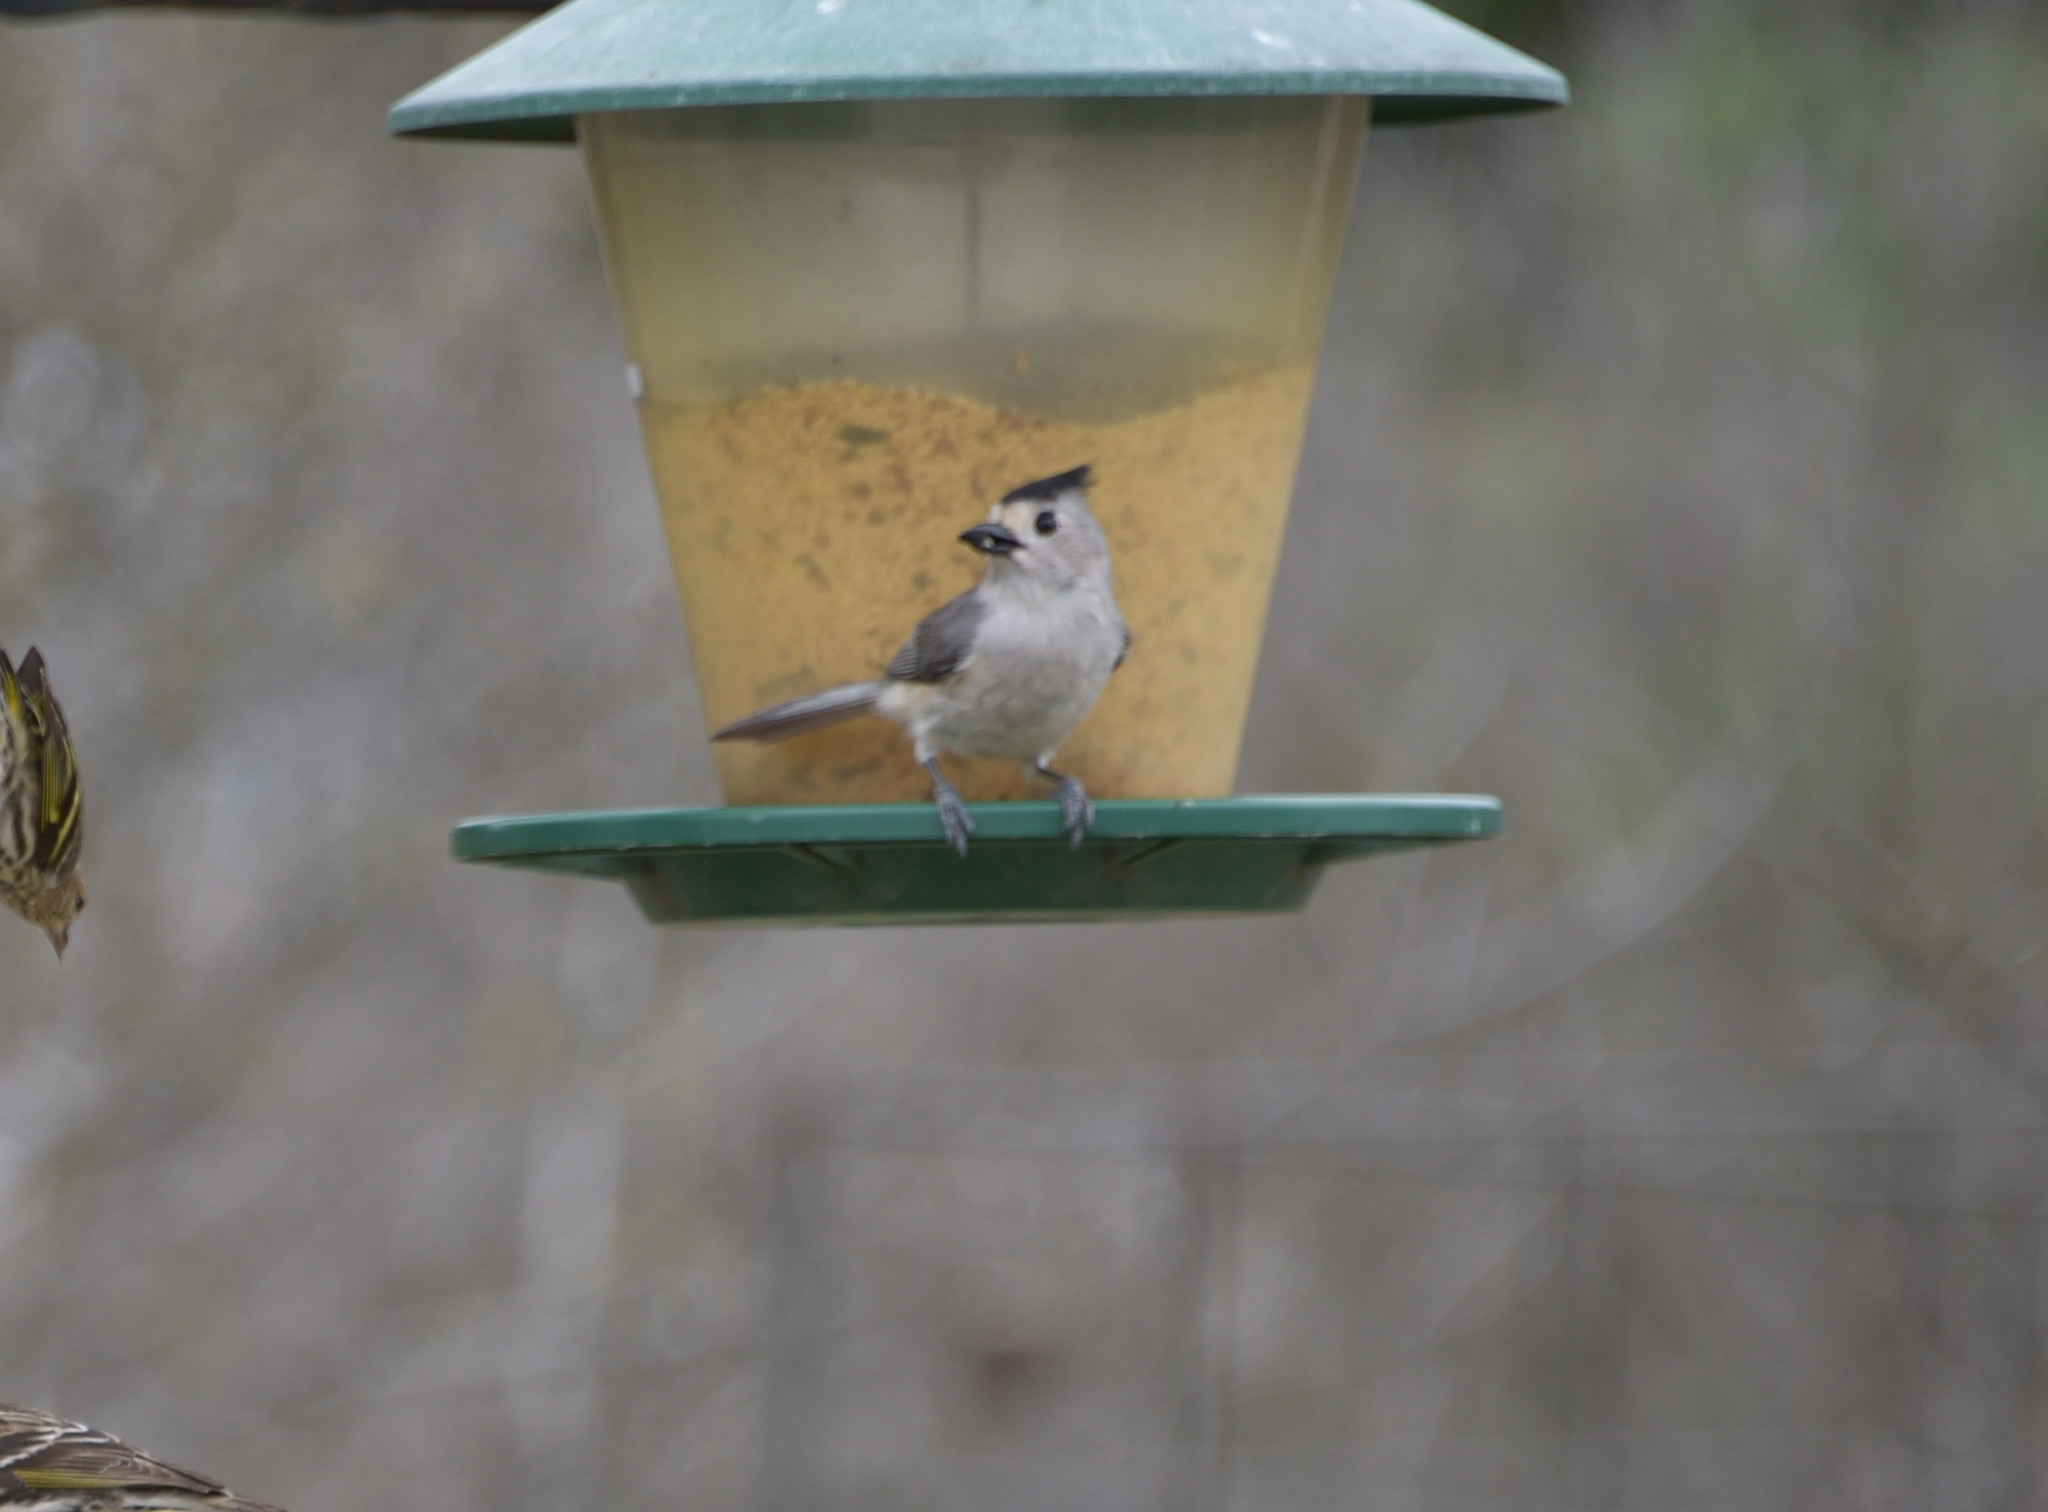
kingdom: Animalia
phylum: Chordata
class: Aves
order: Passeriformes
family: Paridae
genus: Baeolophus
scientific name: Baeolophus atricristatus
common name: Black-crested titmouse
